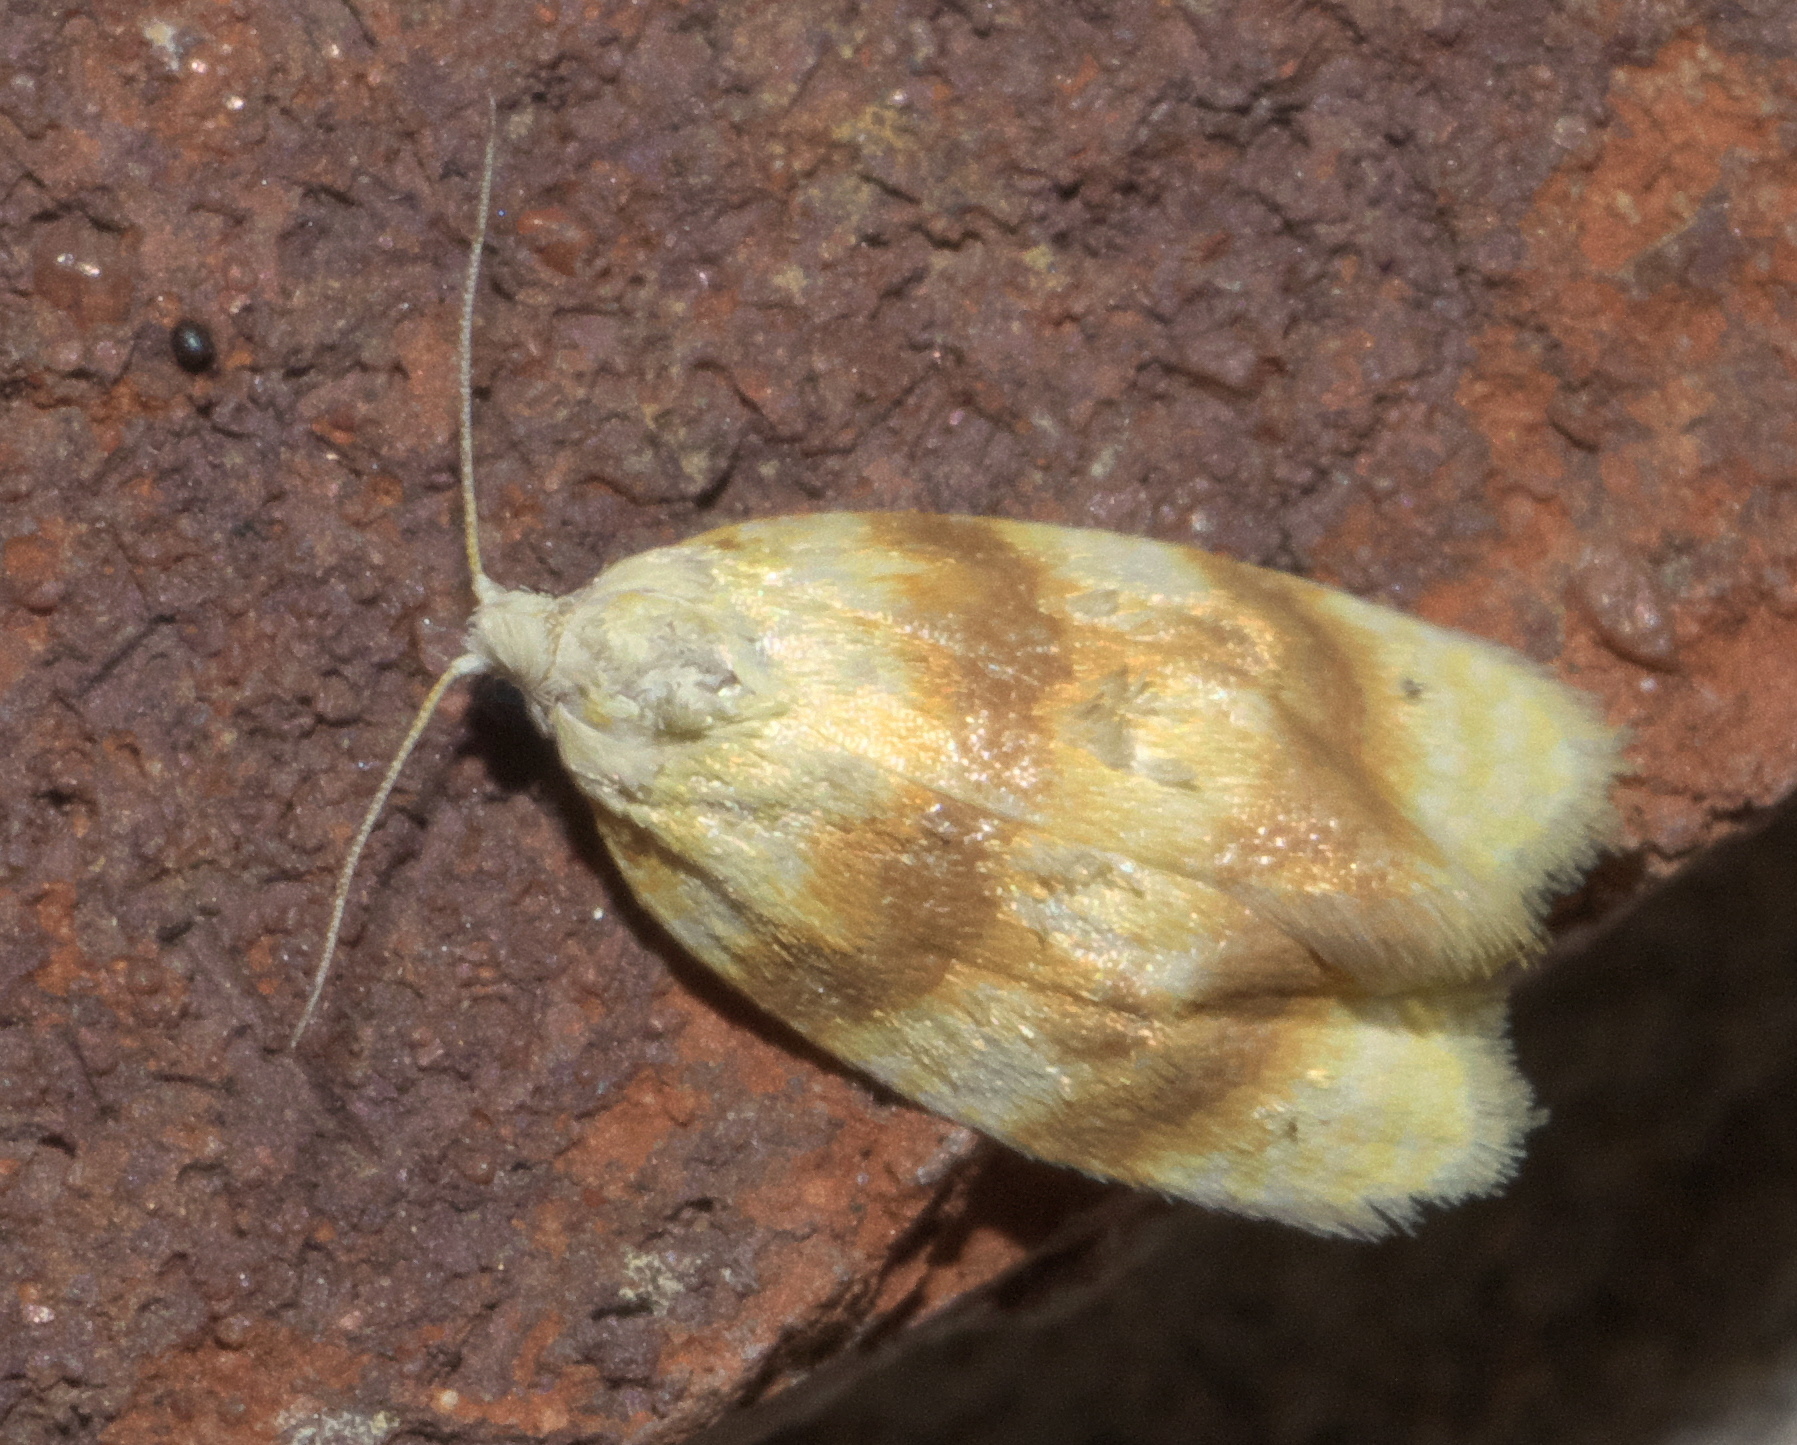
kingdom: Animalia
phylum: Arthropoda
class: Insecta
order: Lepidoptera
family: Tortricidae
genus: Acleris
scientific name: Acleris semipurpurana
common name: Oak leaftier moth
